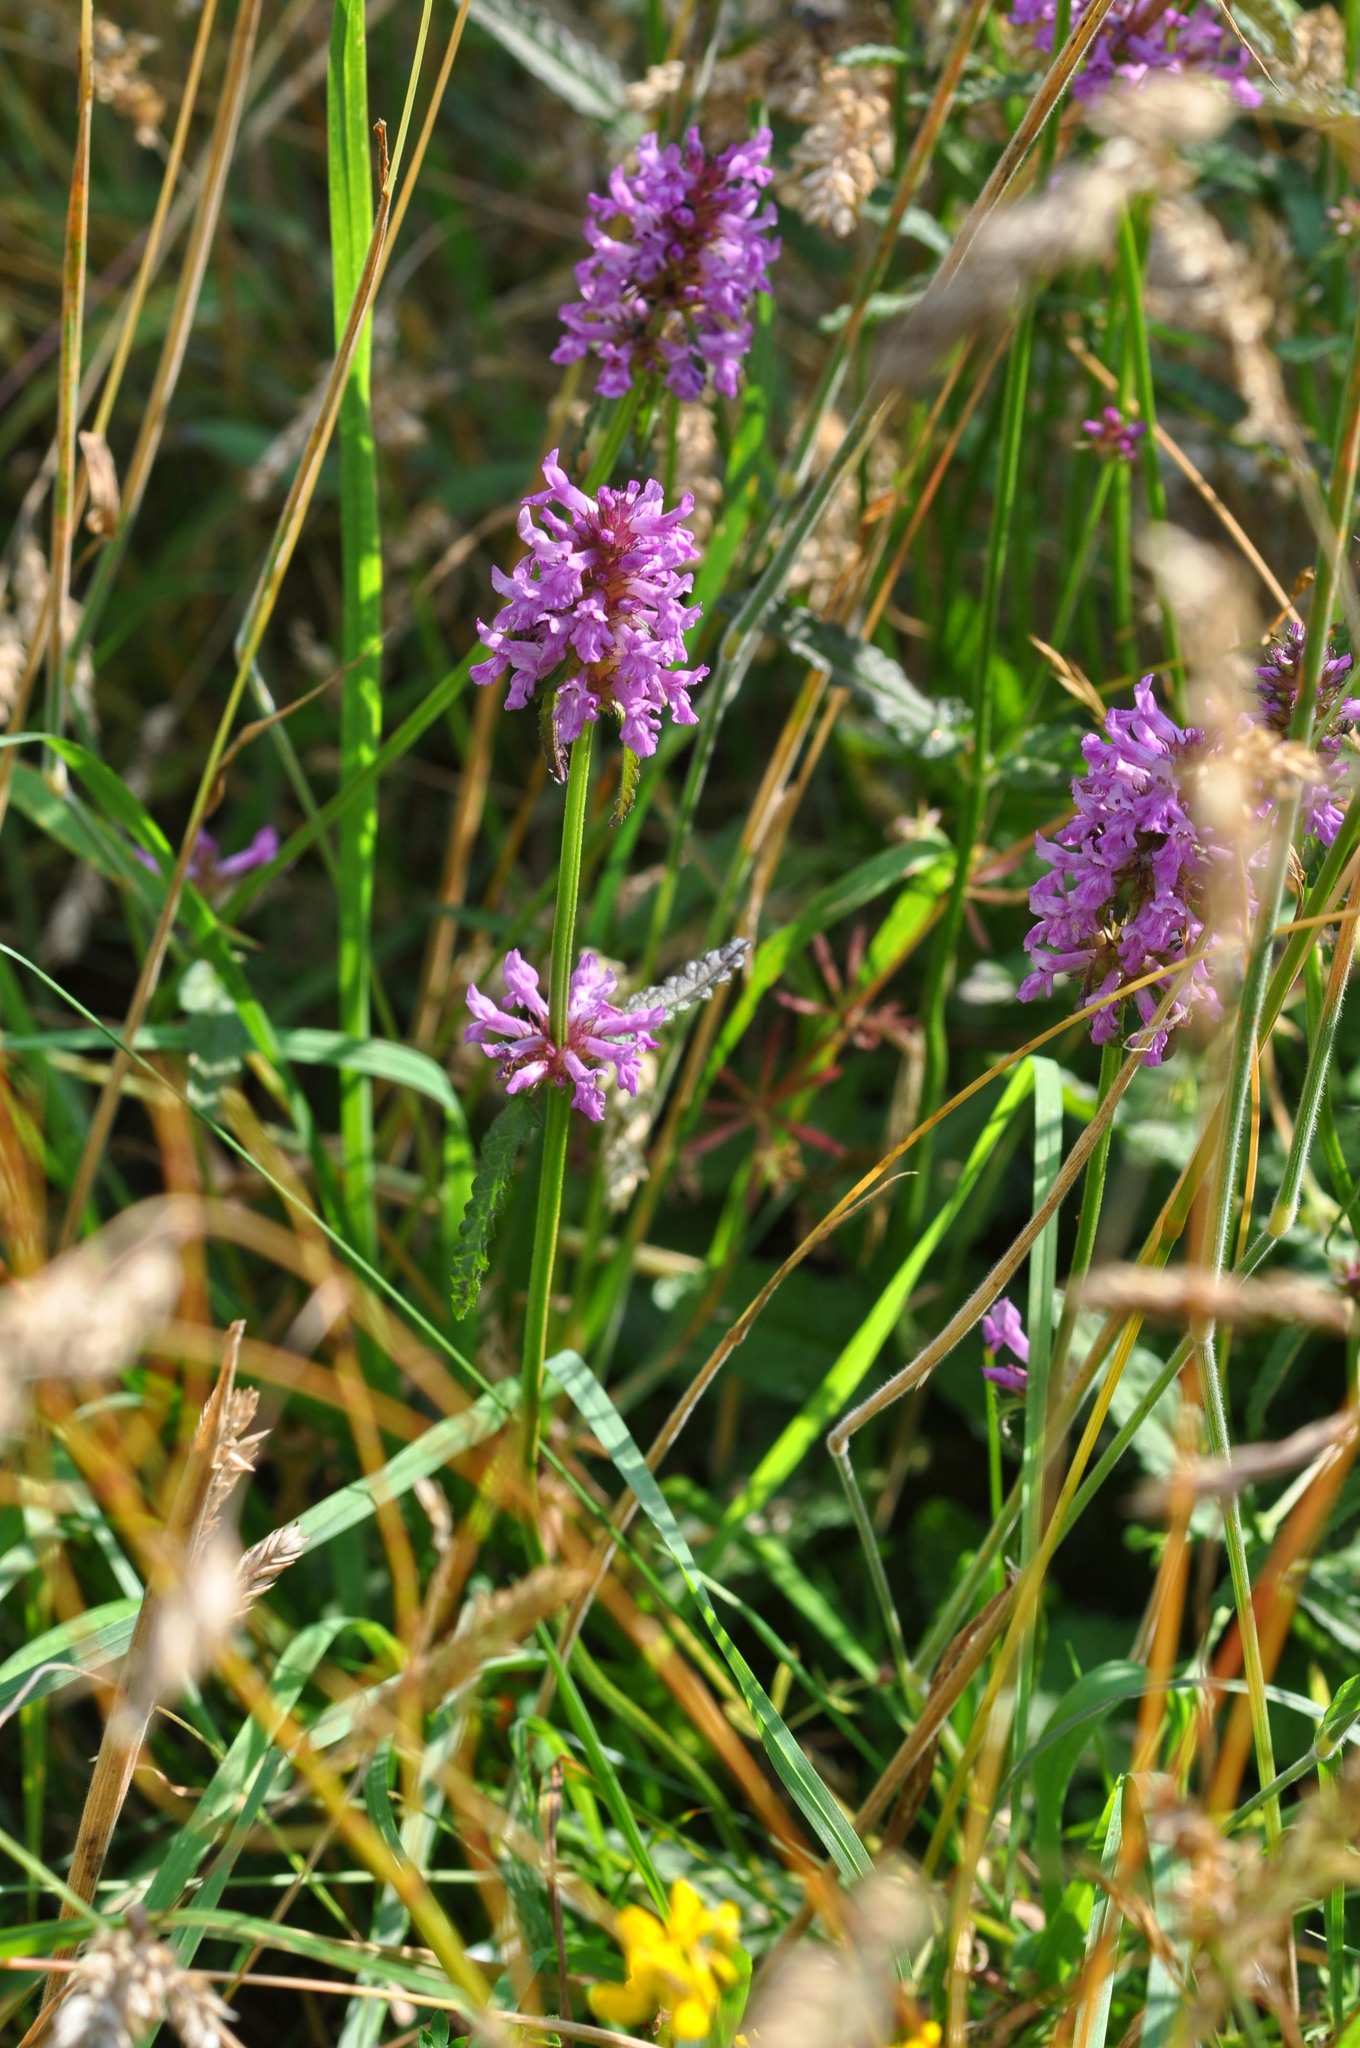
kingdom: Plantae
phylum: Tracheophyta
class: Magnoliopsida
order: Lamiales
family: Lamiaceae
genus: Betonica
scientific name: Betonica officinalis
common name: Bishop's-wort
